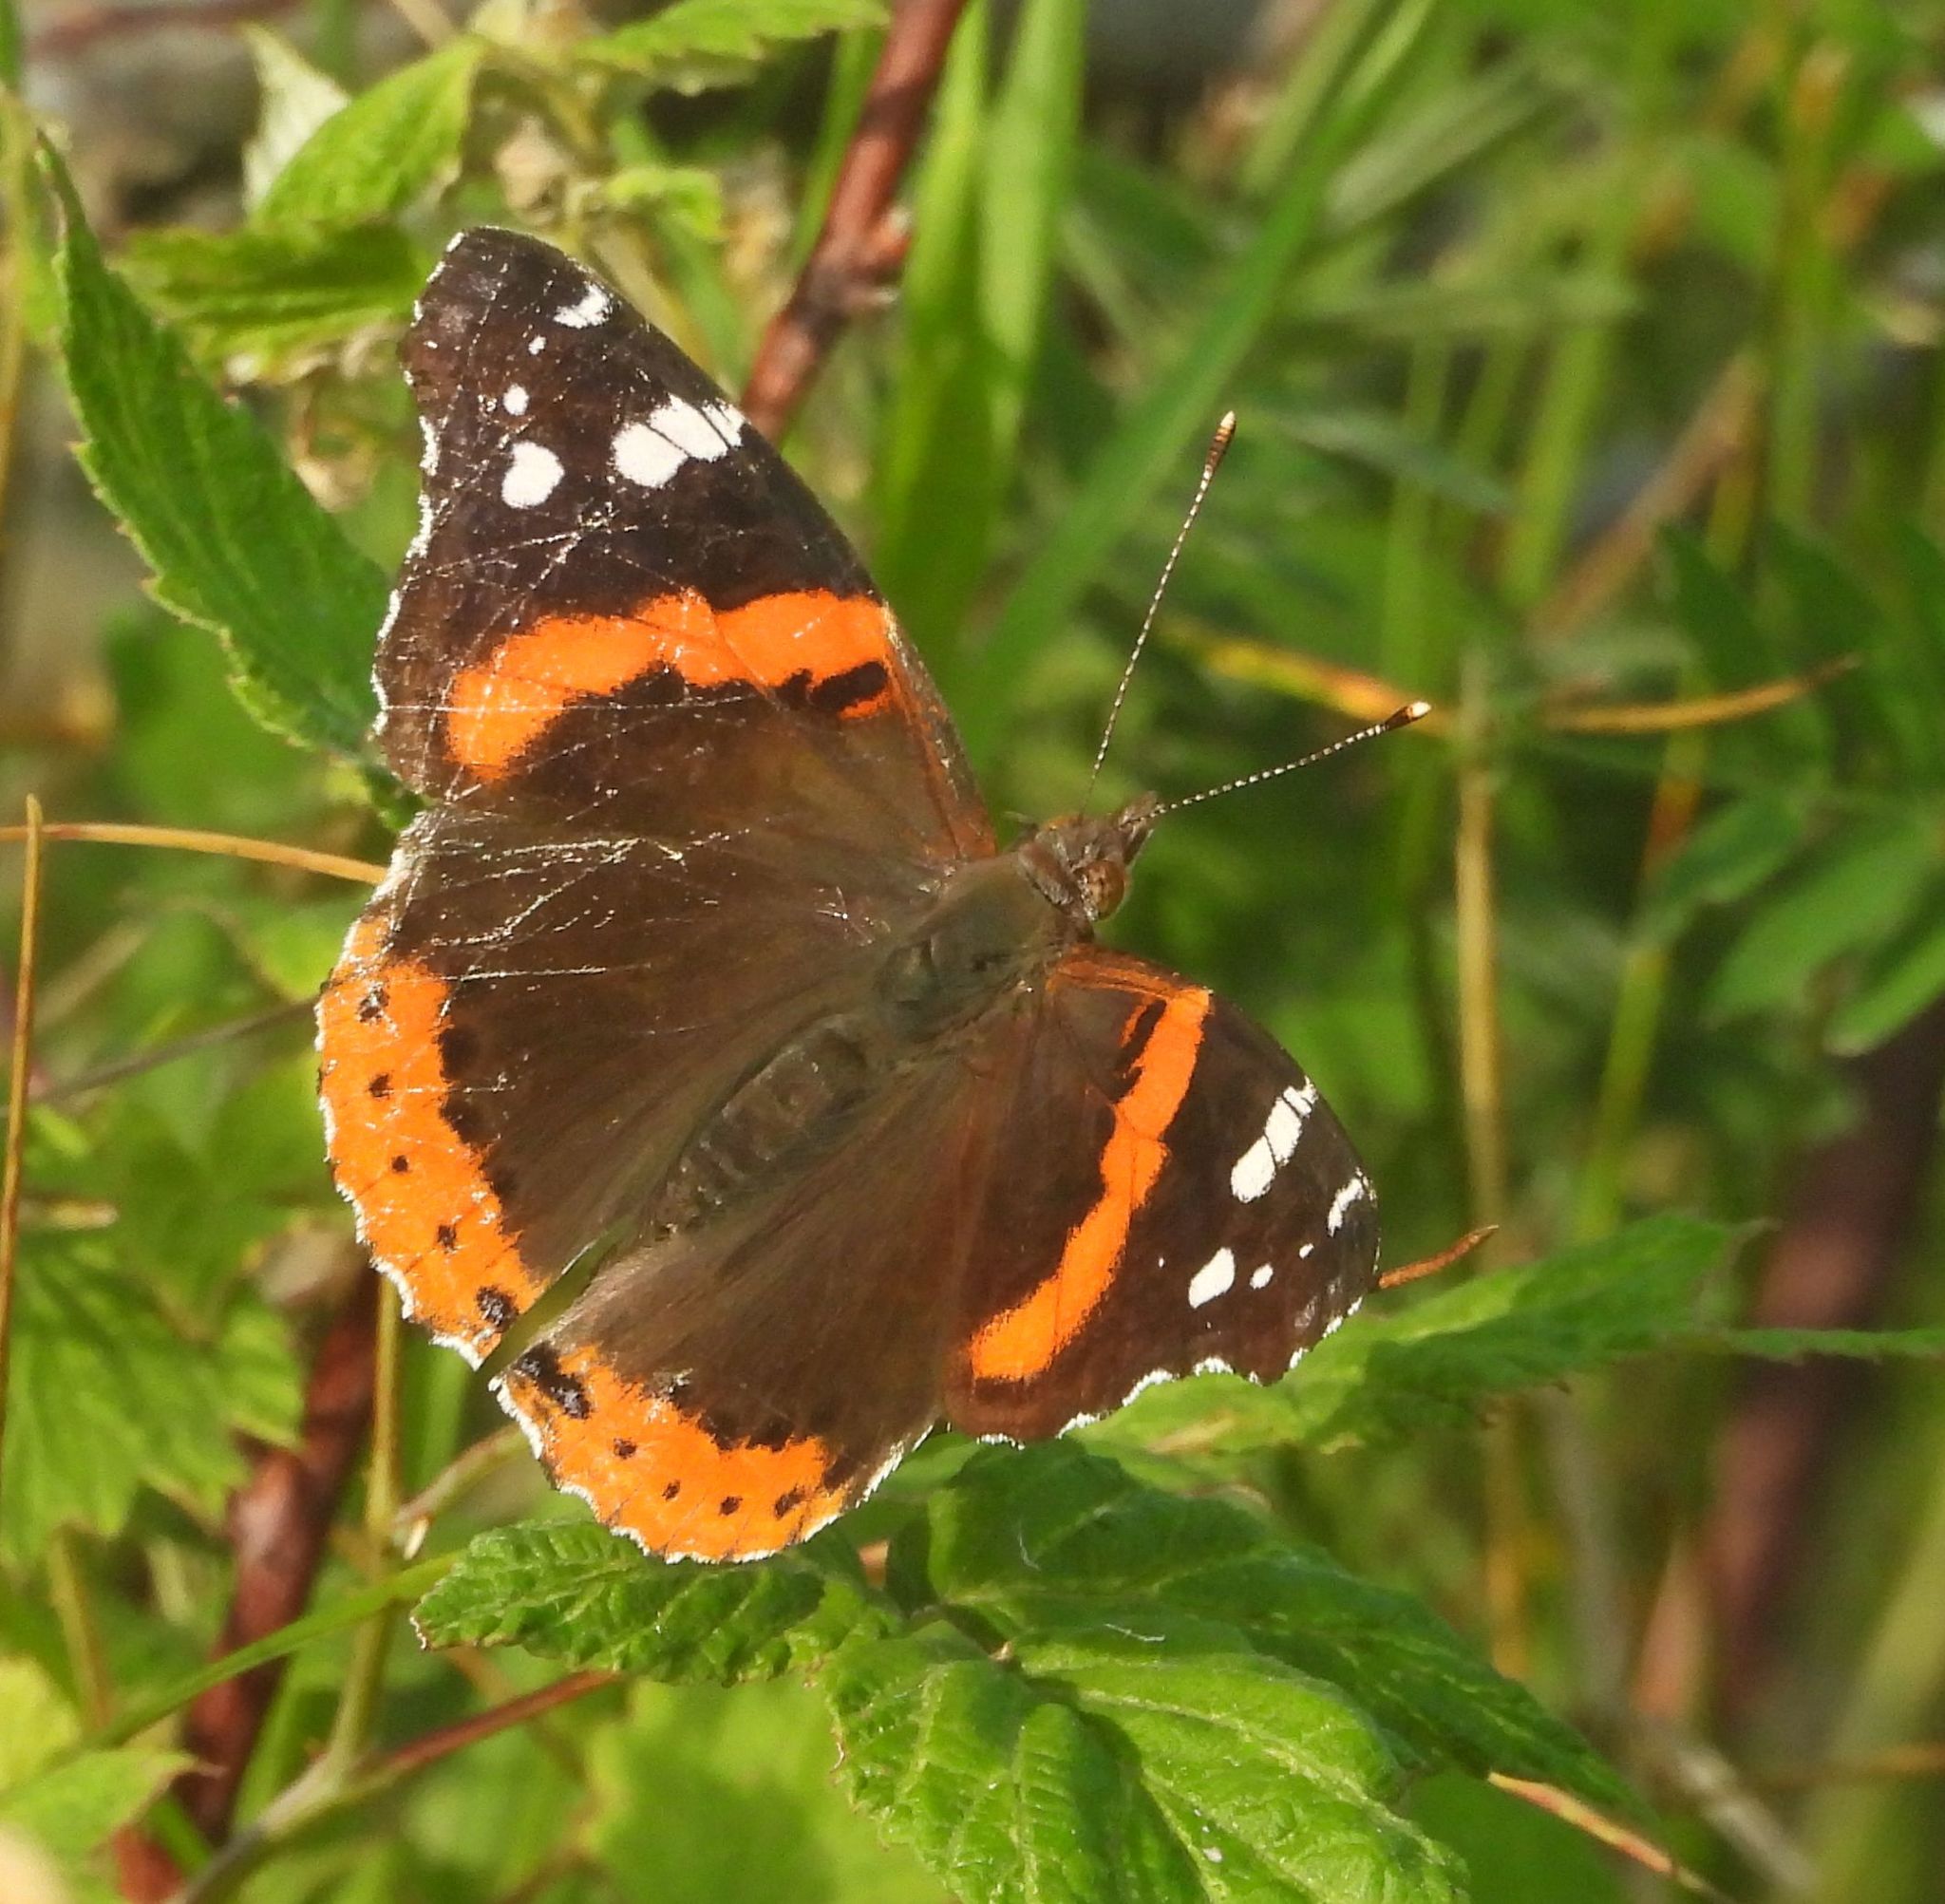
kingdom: Animalia
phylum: Arthropoda
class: Insecta
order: Lepidoptera
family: Nymphalidae
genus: Vanessa
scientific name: Vanessa atalanta
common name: Red admiral
